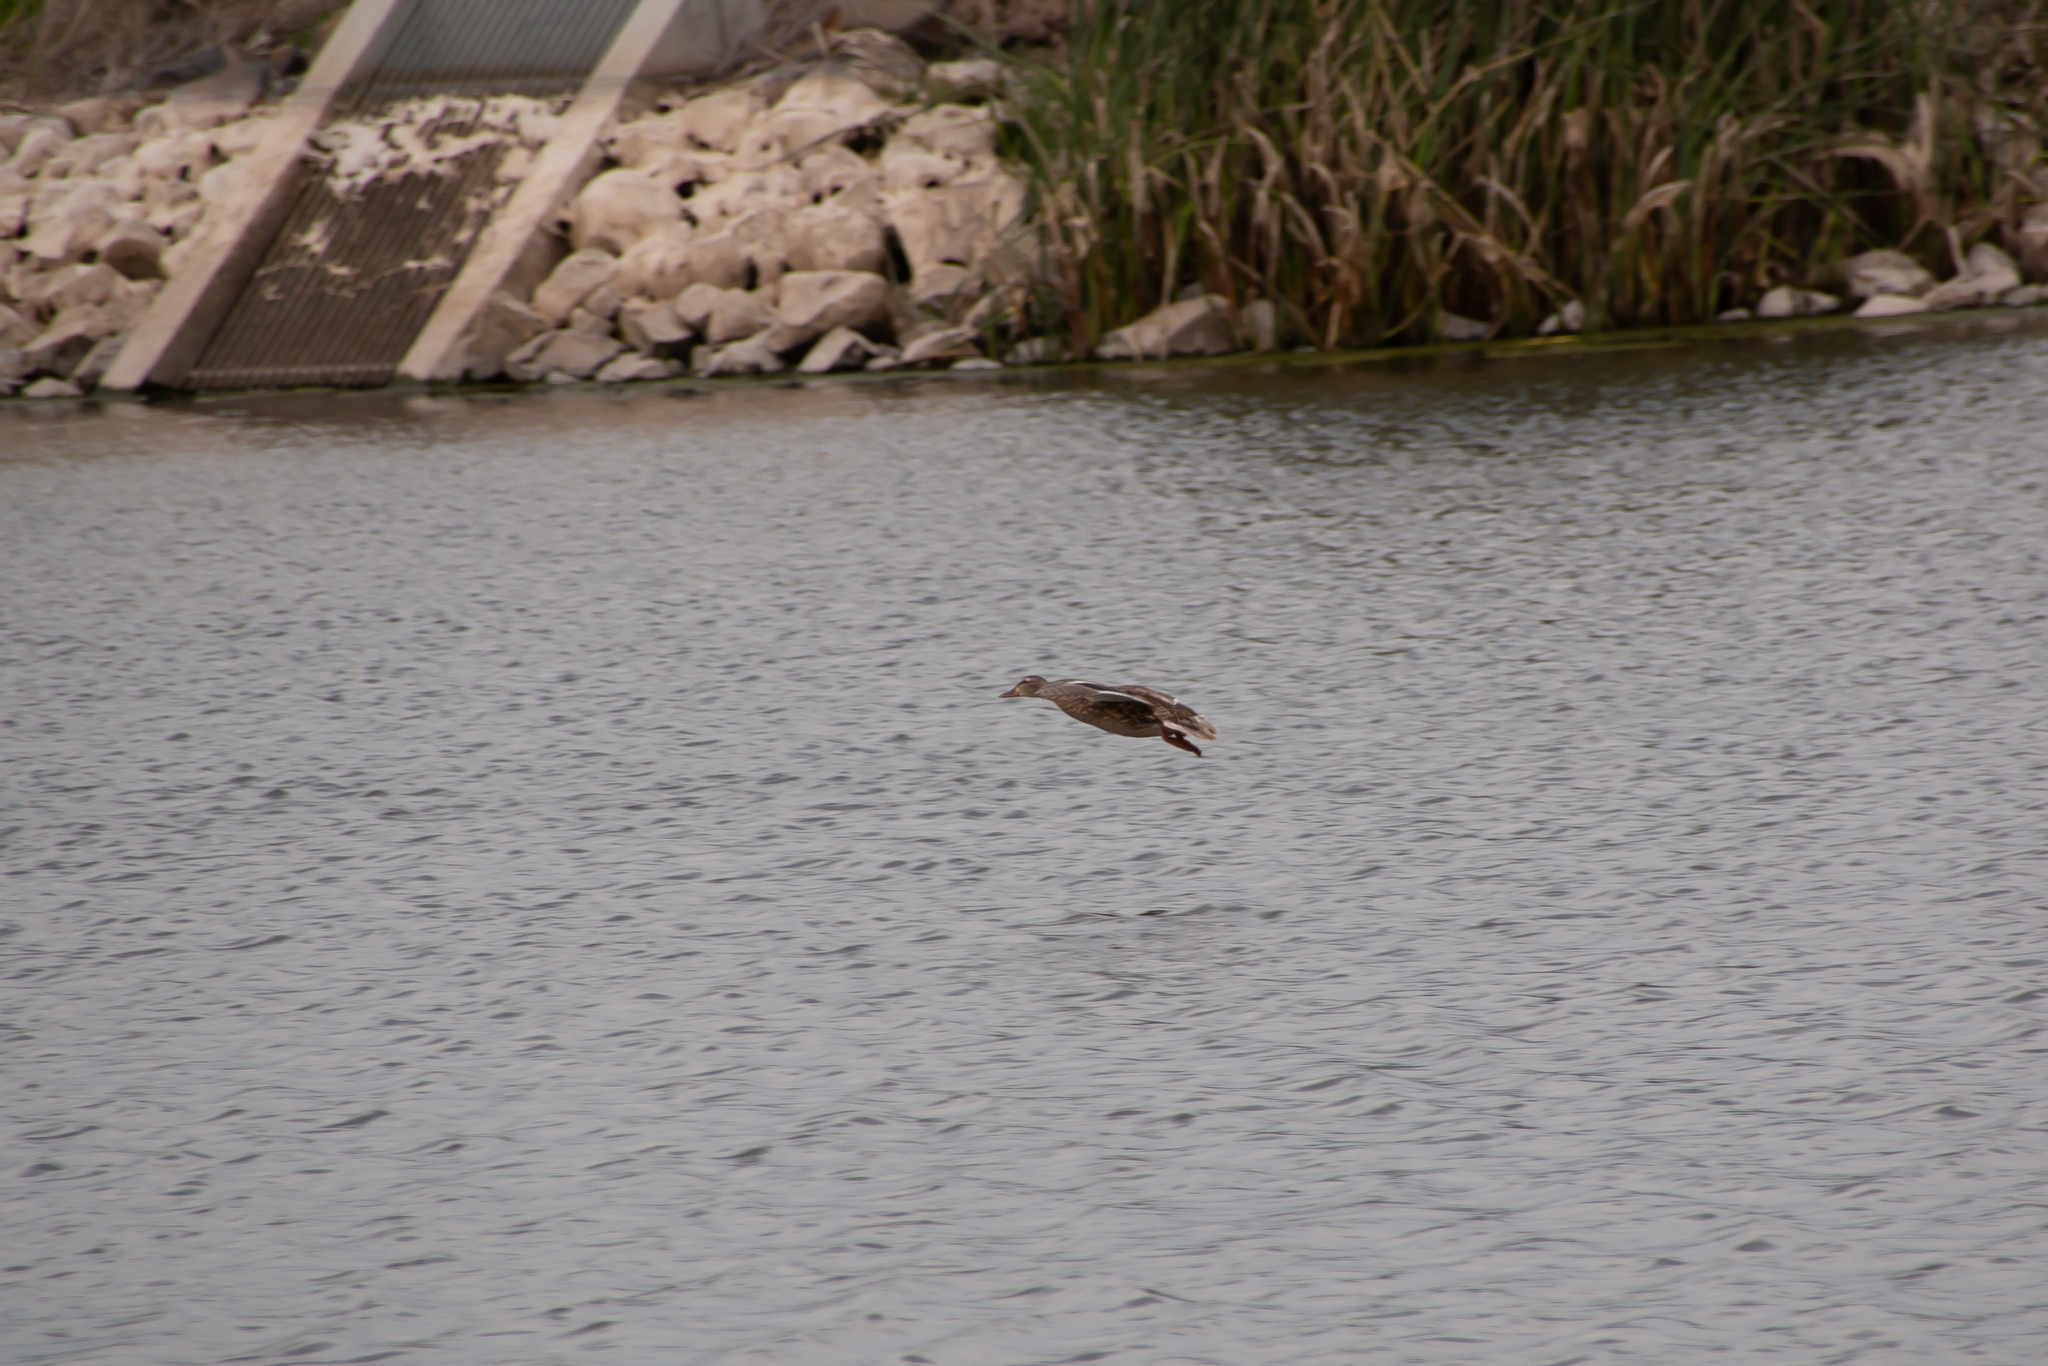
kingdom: Animalia
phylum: Chordata
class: Aves
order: Anseriformes
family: Anatidae
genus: Anas
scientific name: Anas platyrhynchos
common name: Mallard
